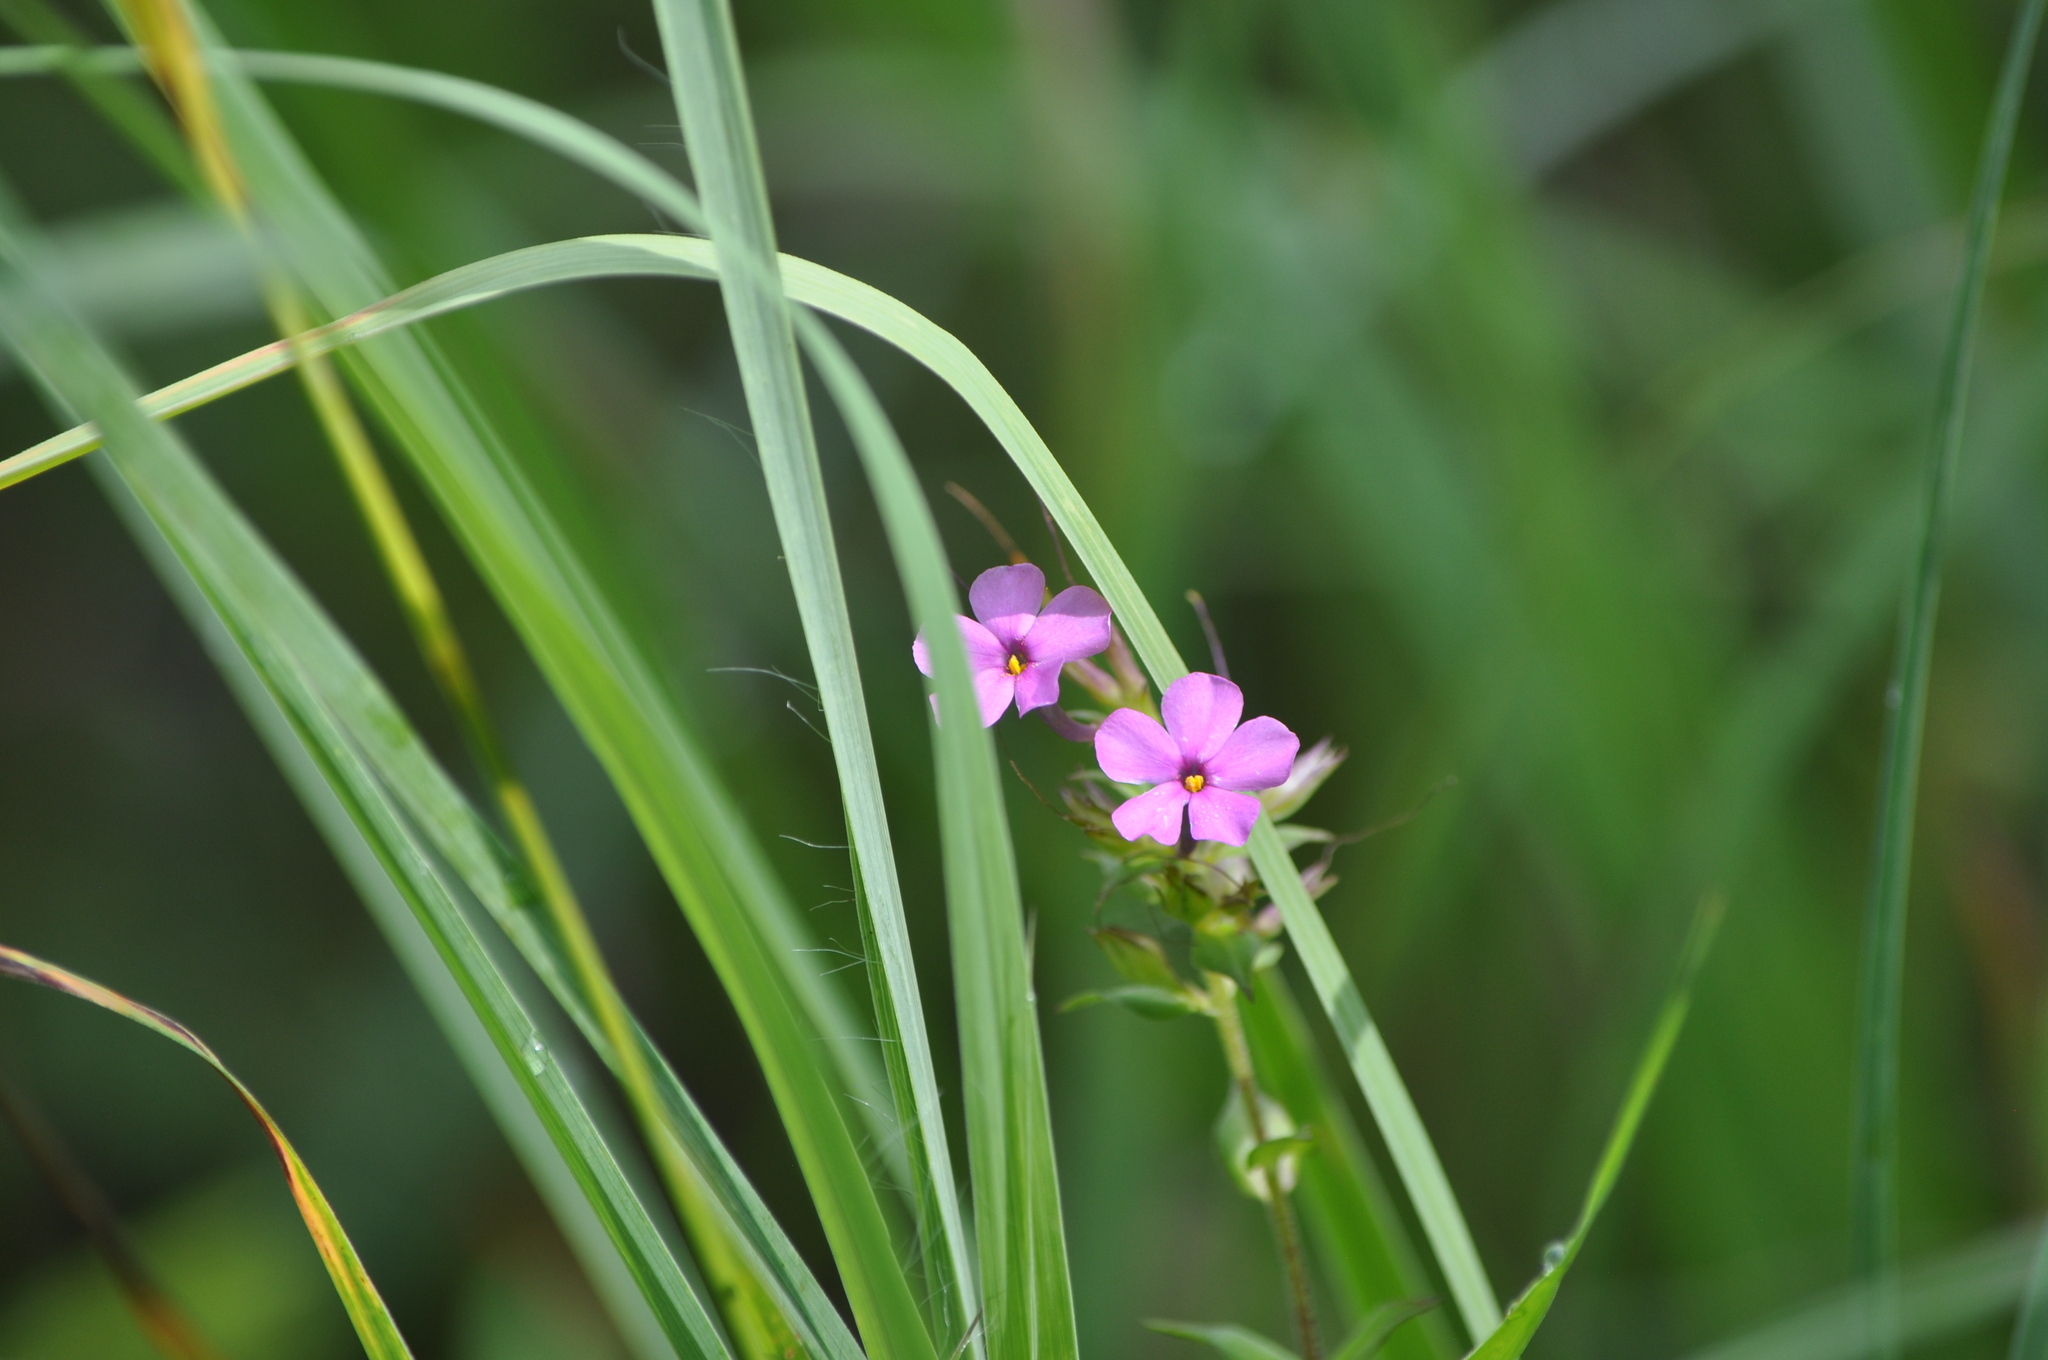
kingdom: Plantae
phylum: Tracheophyta
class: Magnoliopsida
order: Ericales
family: Polemoniaceae
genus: Phlox
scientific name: Phlox maculata
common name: Meadow phlox
